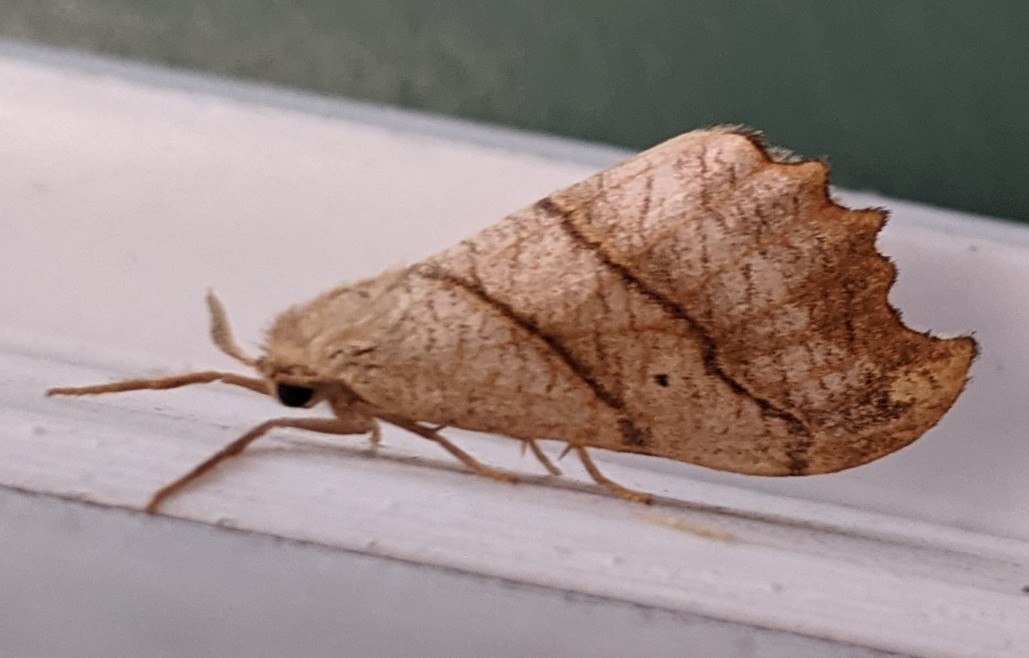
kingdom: Animalia
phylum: Arthropoda
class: Insecta
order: Lepidoptera
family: Drepanidae
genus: Falcaria
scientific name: Falcaria bilineata
